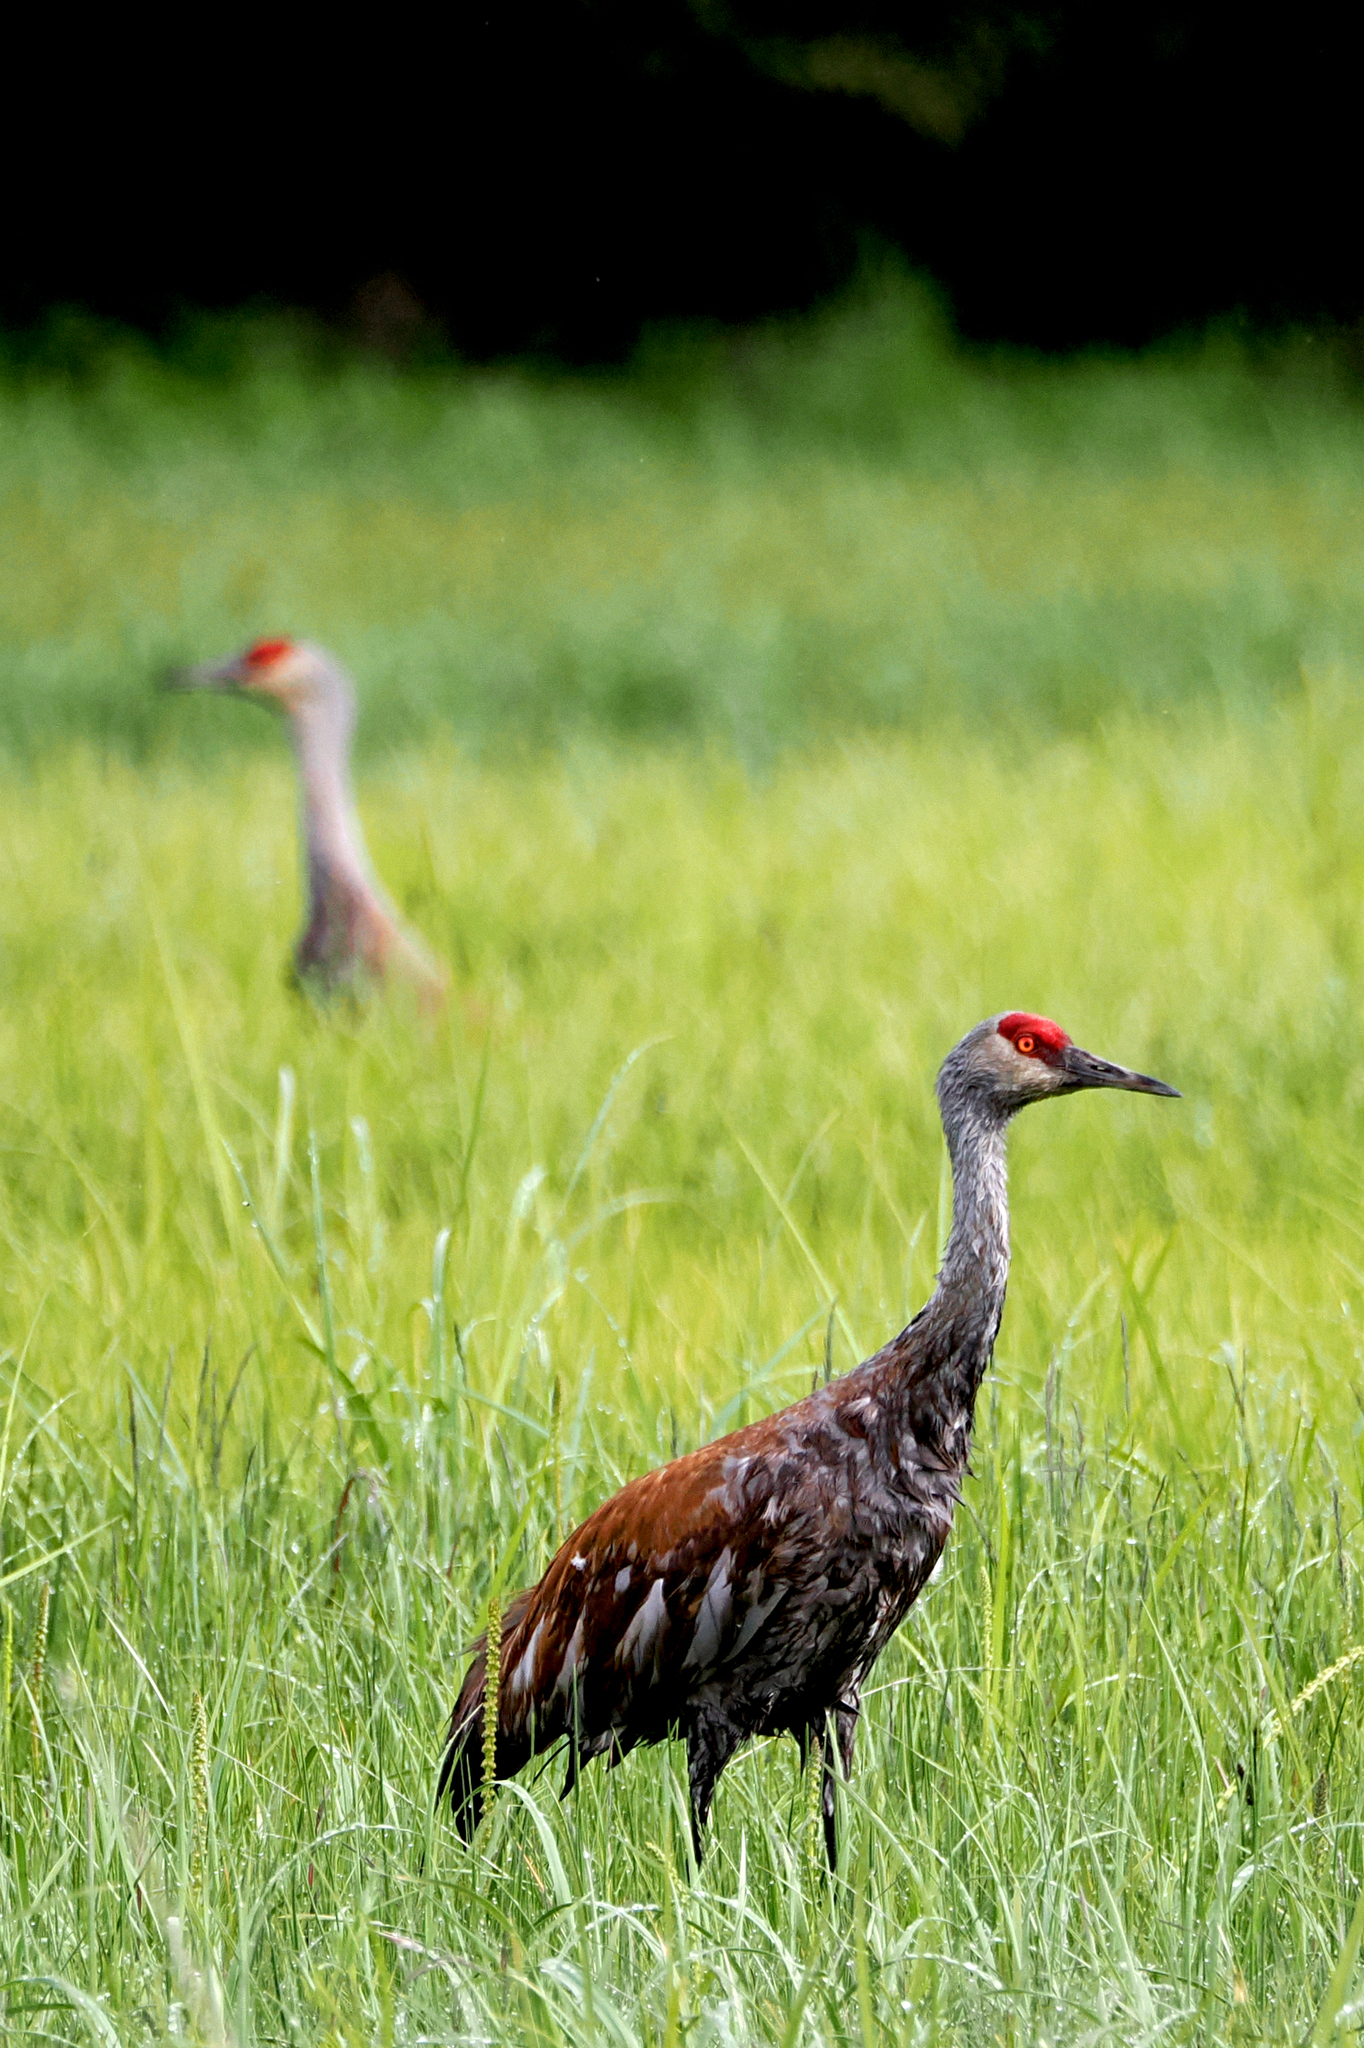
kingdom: Animalia
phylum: Chordata
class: Aves
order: Gruiformes
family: Gruidae
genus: Grus
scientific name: Grus canadensis
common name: Sandhill crane
